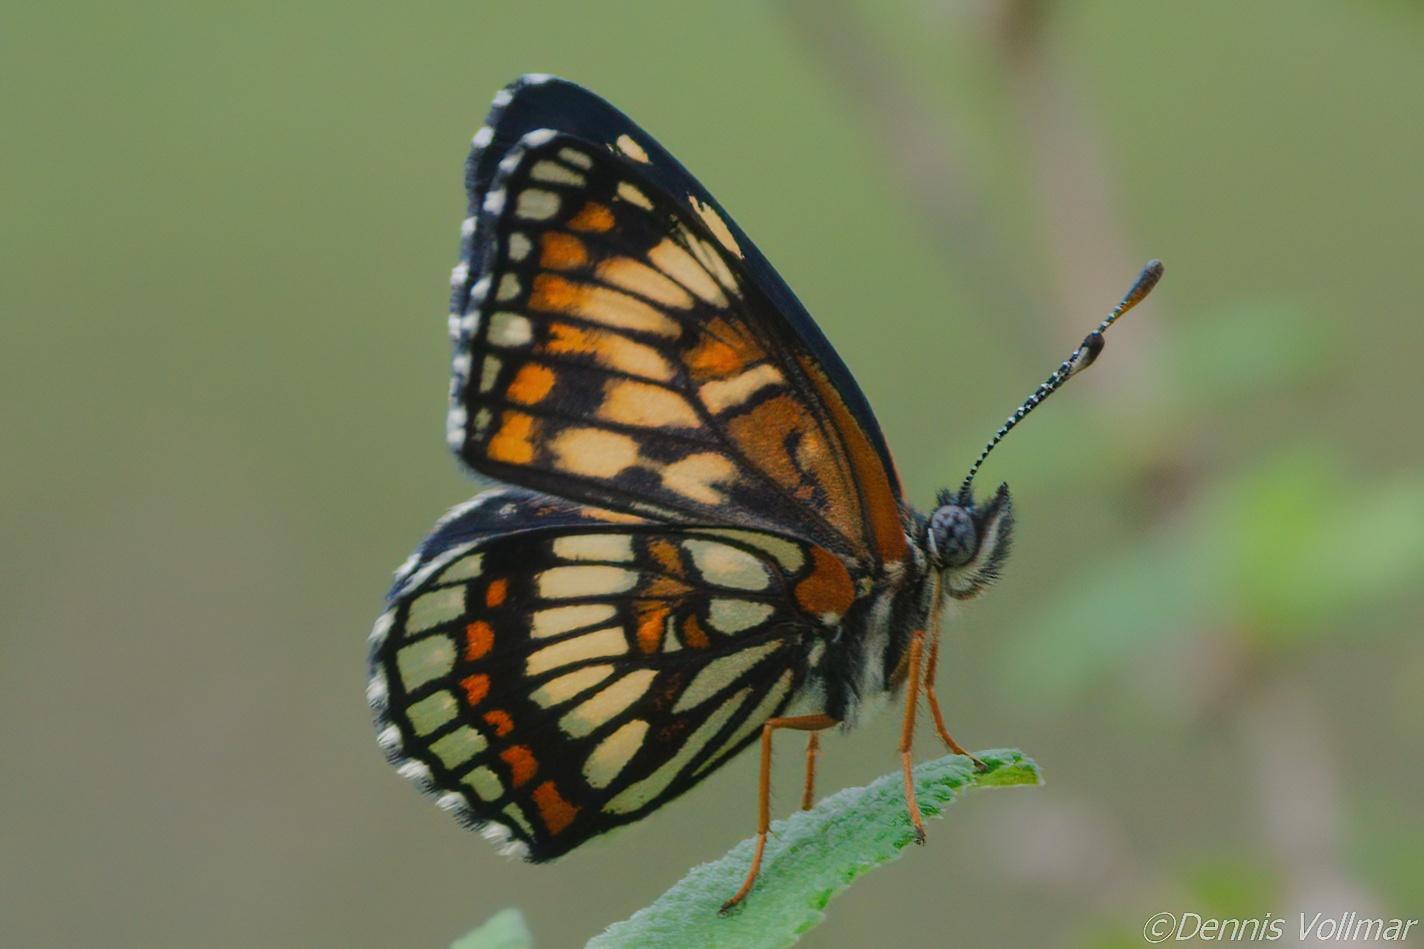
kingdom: Animalia
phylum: Arthropoda
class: Insecta
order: Lepidoptera
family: Nymphalidae
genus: Thessalia
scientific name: Thessalia theona
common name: Nymphalid moth
